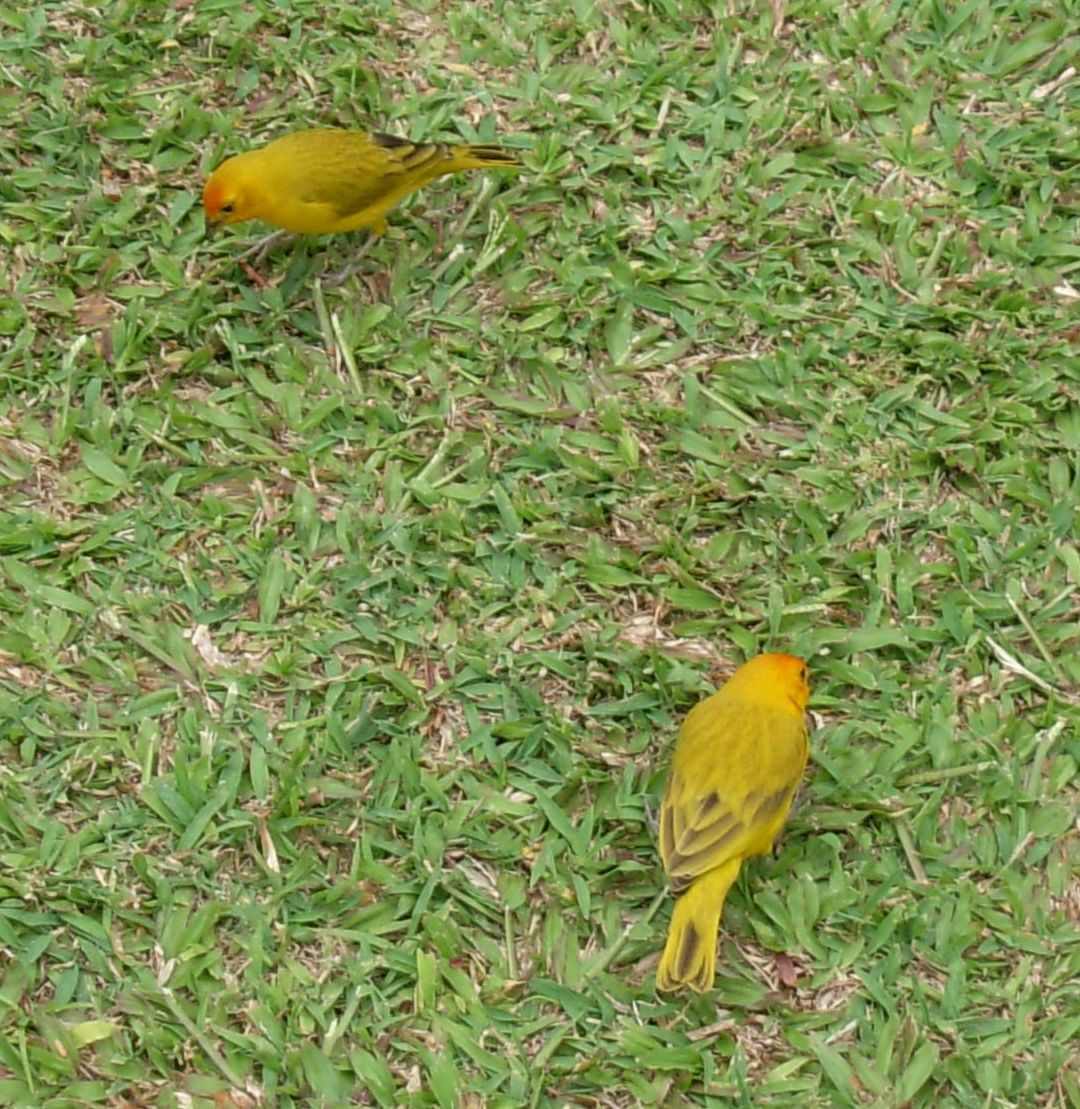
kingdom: Animalia
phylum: Chordata
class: Aves
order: Passeriformes
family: Thraupidae
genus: Sicalis
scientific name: Sicalis flaveola
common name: Saffron finch
